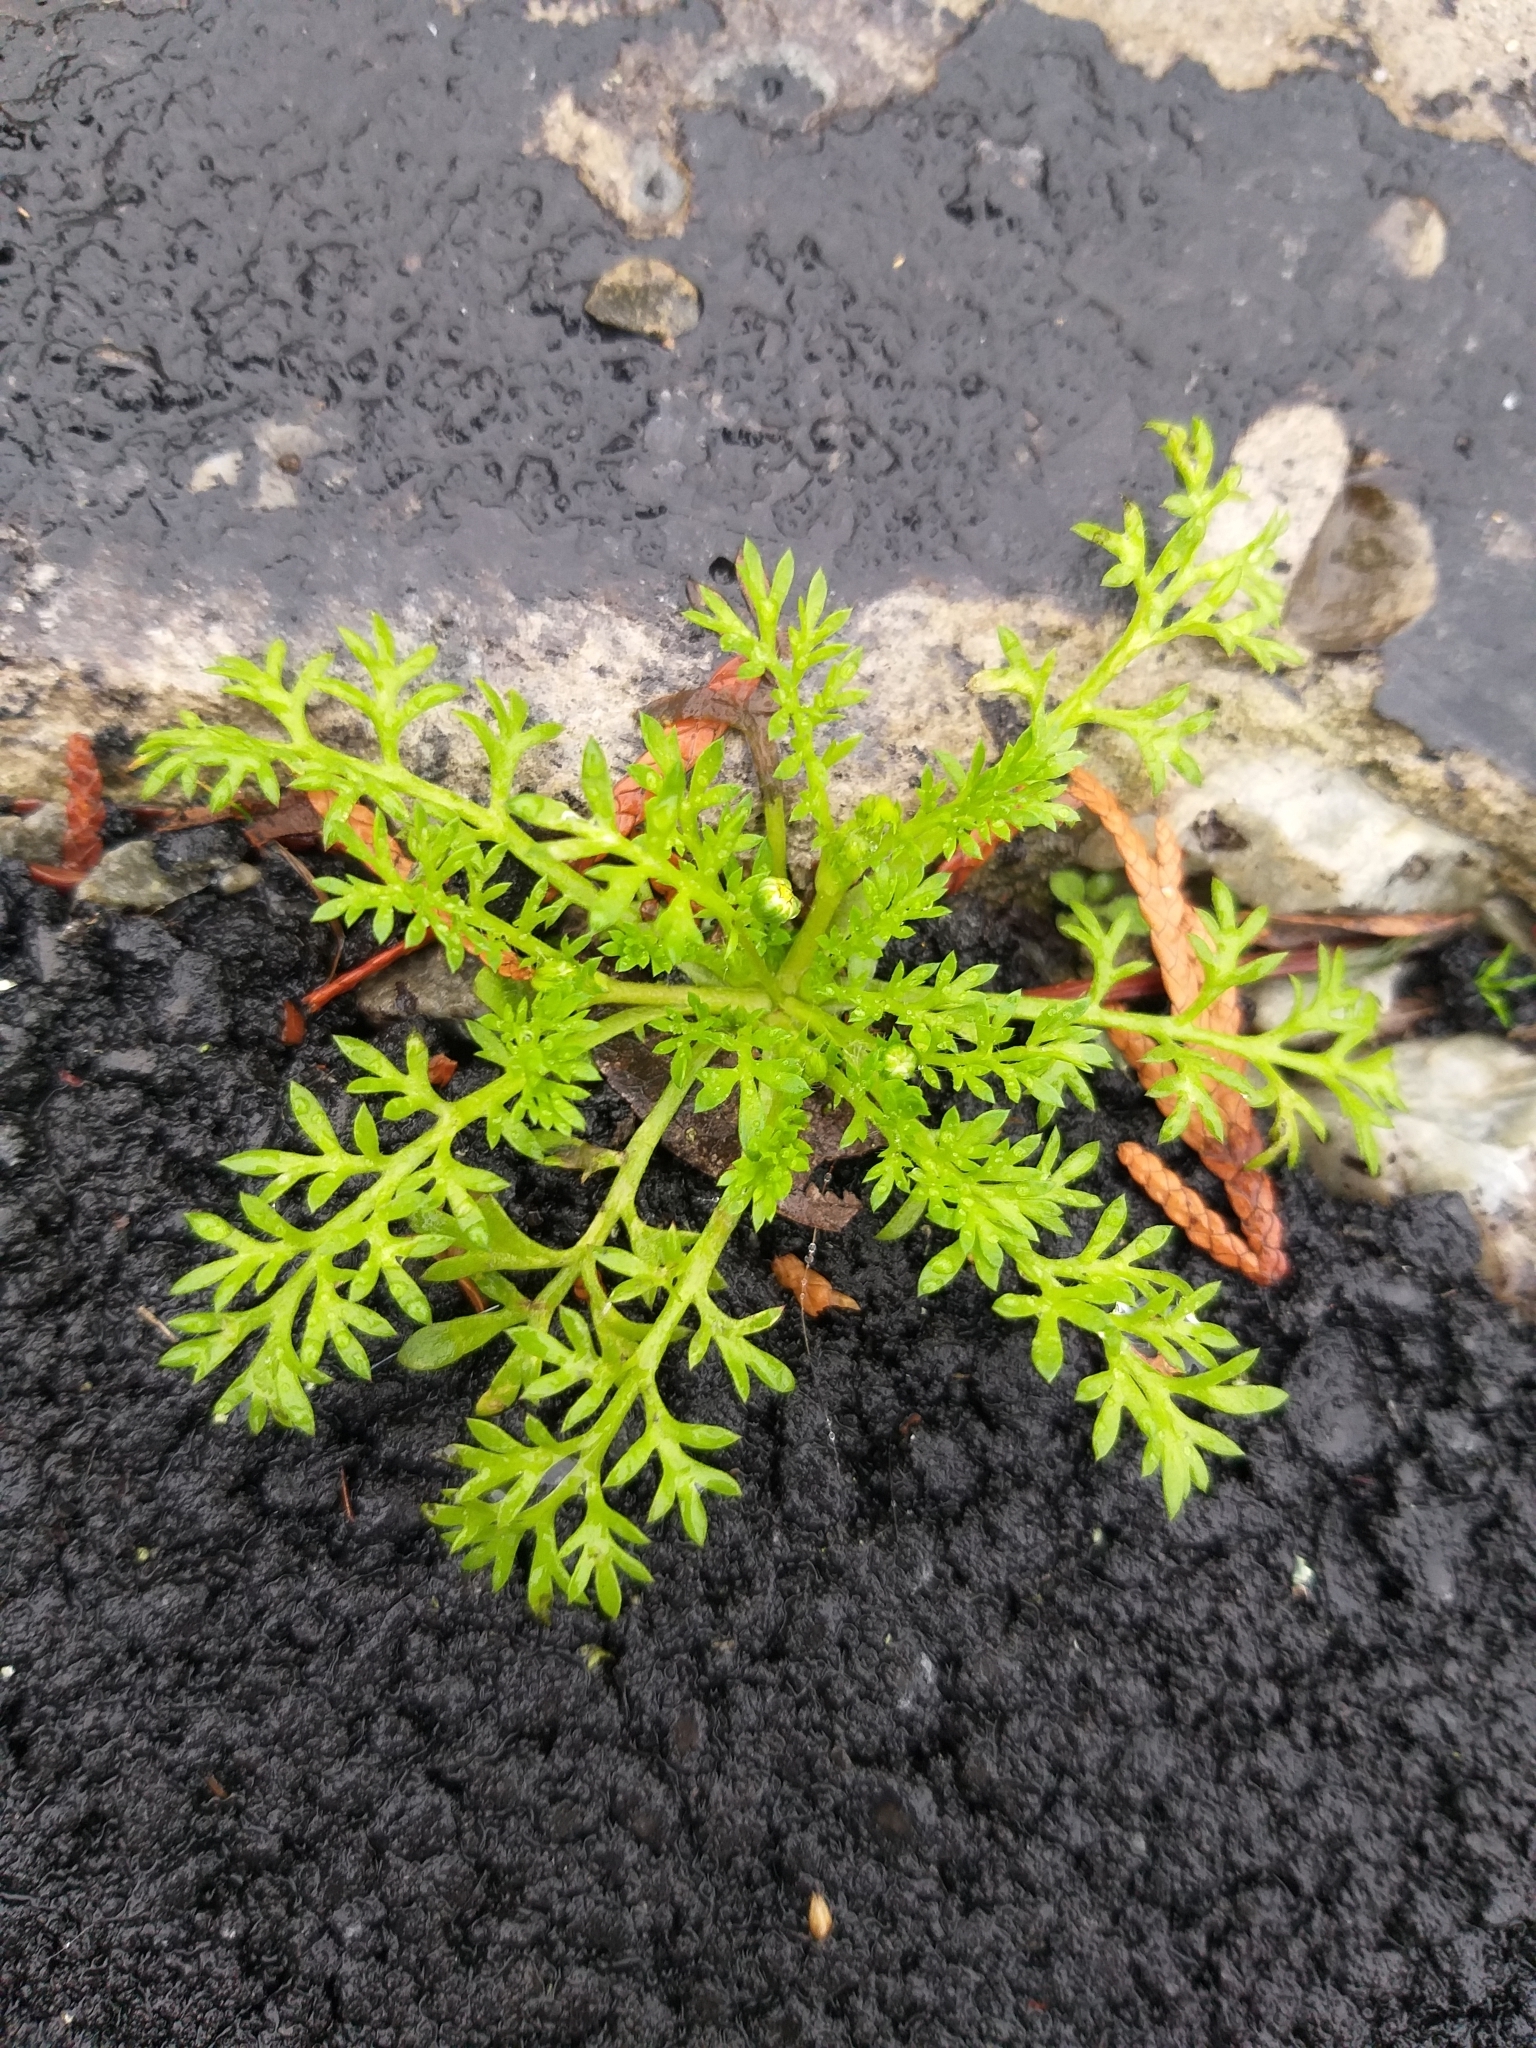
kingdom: Plantae
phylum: Tracheophyta
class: Magnoliopsida
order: Asterales
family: Asteraceae
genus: Cotula
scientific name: Cotula australis
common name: Australian waterbuttons
